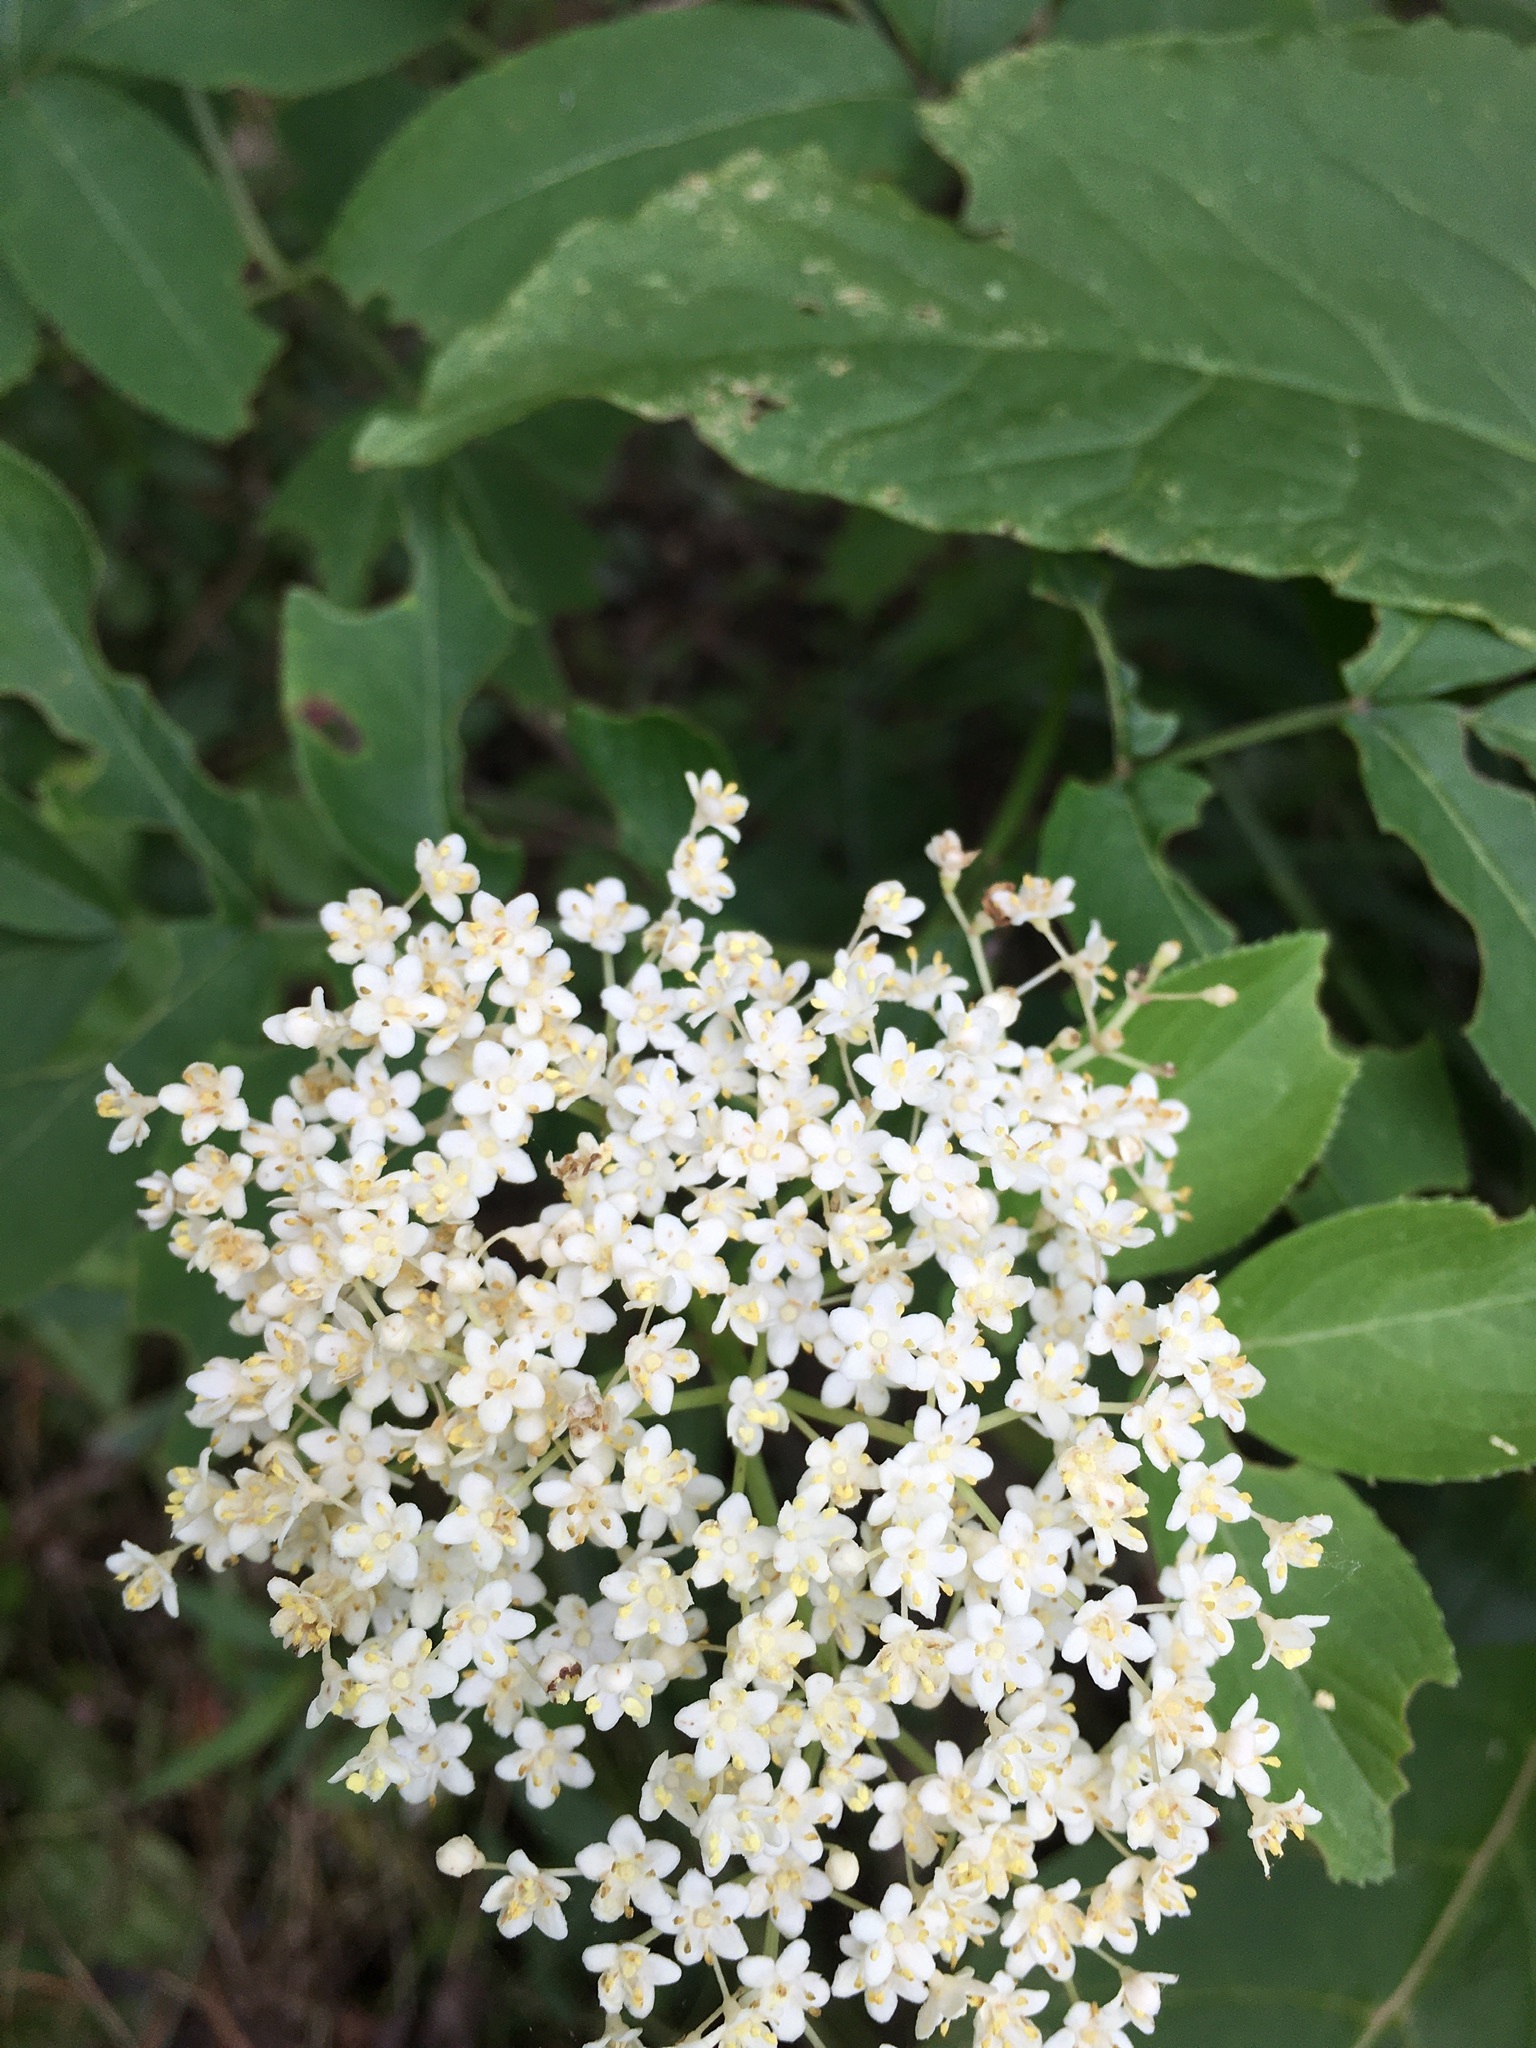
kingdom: Plantae
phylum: Tracheophyta
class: Magnoliopsida
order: Dipsacales
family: Viburnaceae
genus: Sambucus
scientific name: Sambucus canadensis
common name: American elder
